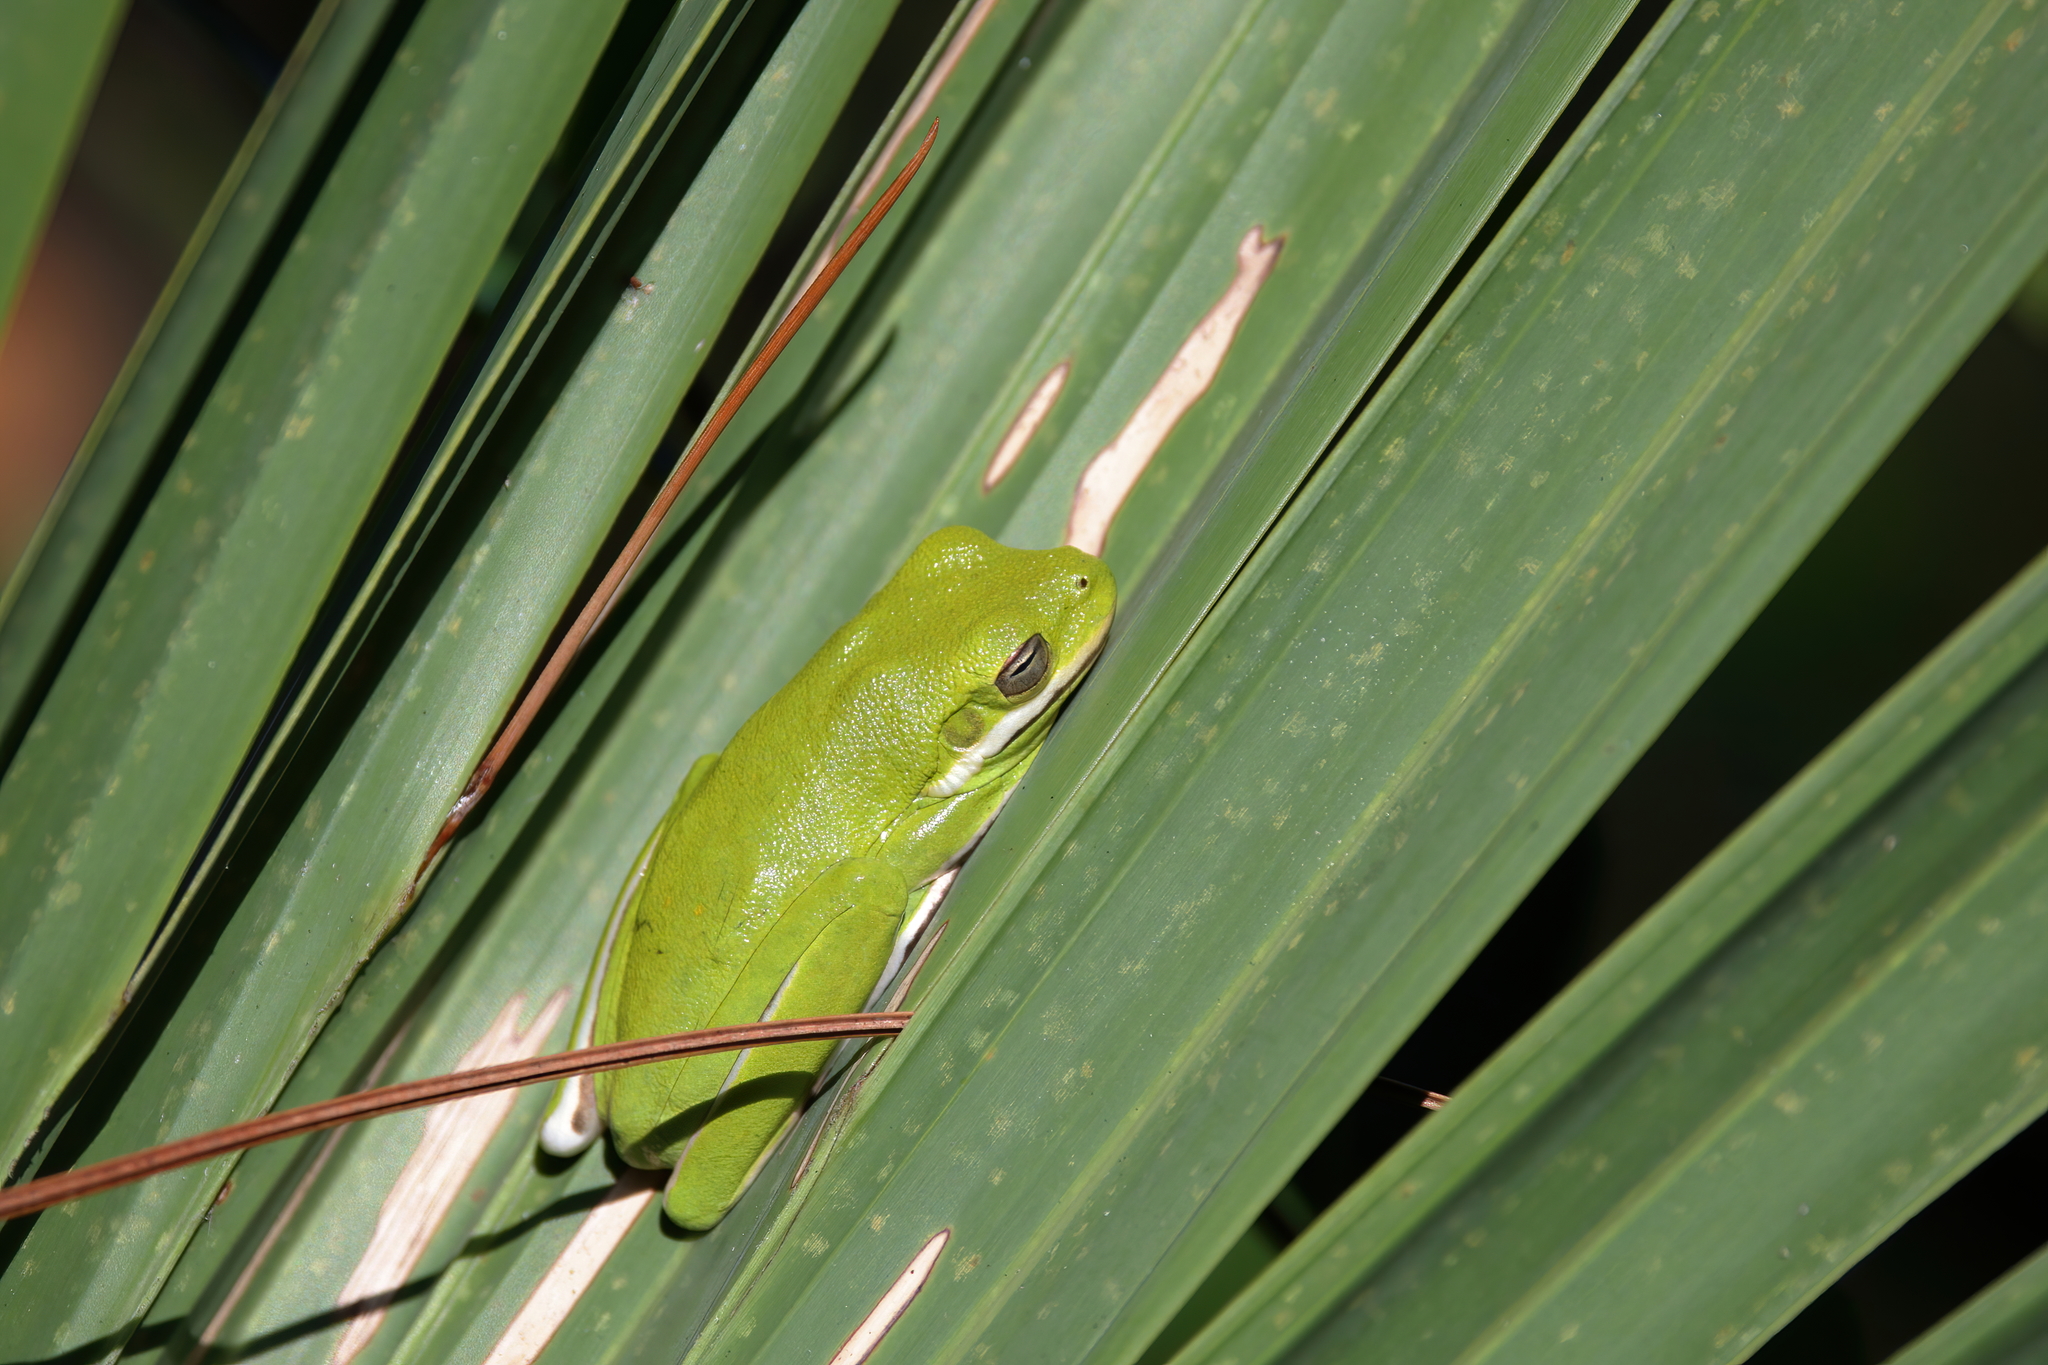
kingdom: Animalia
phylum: Chordata
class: Amphibia
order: Anura
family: Hylidae
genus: Dryophytes
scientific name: Dryophytes cinereus
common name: Green treefrog
